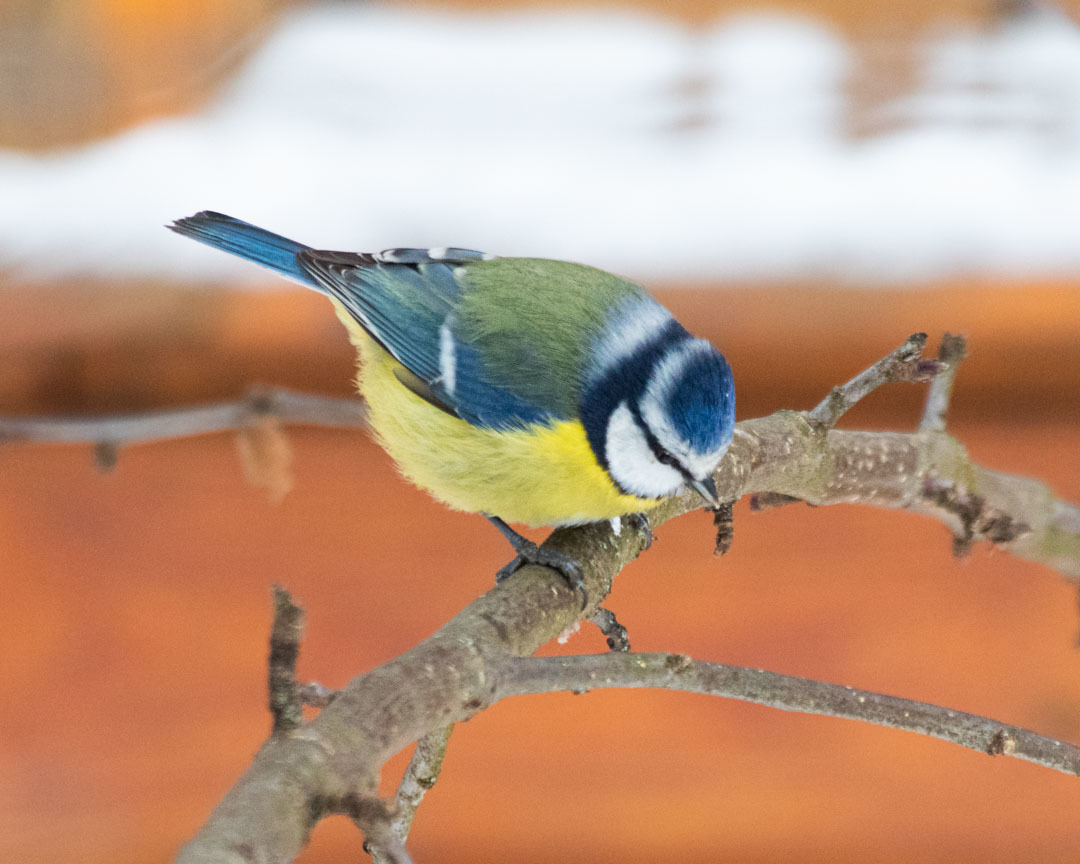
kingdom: Animalia
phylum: Chordata
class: Aves
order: Passeriformes
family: Paridae
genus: Cyanistes
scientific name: Cyanistes caeruleus
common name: Eurasian blue tit
